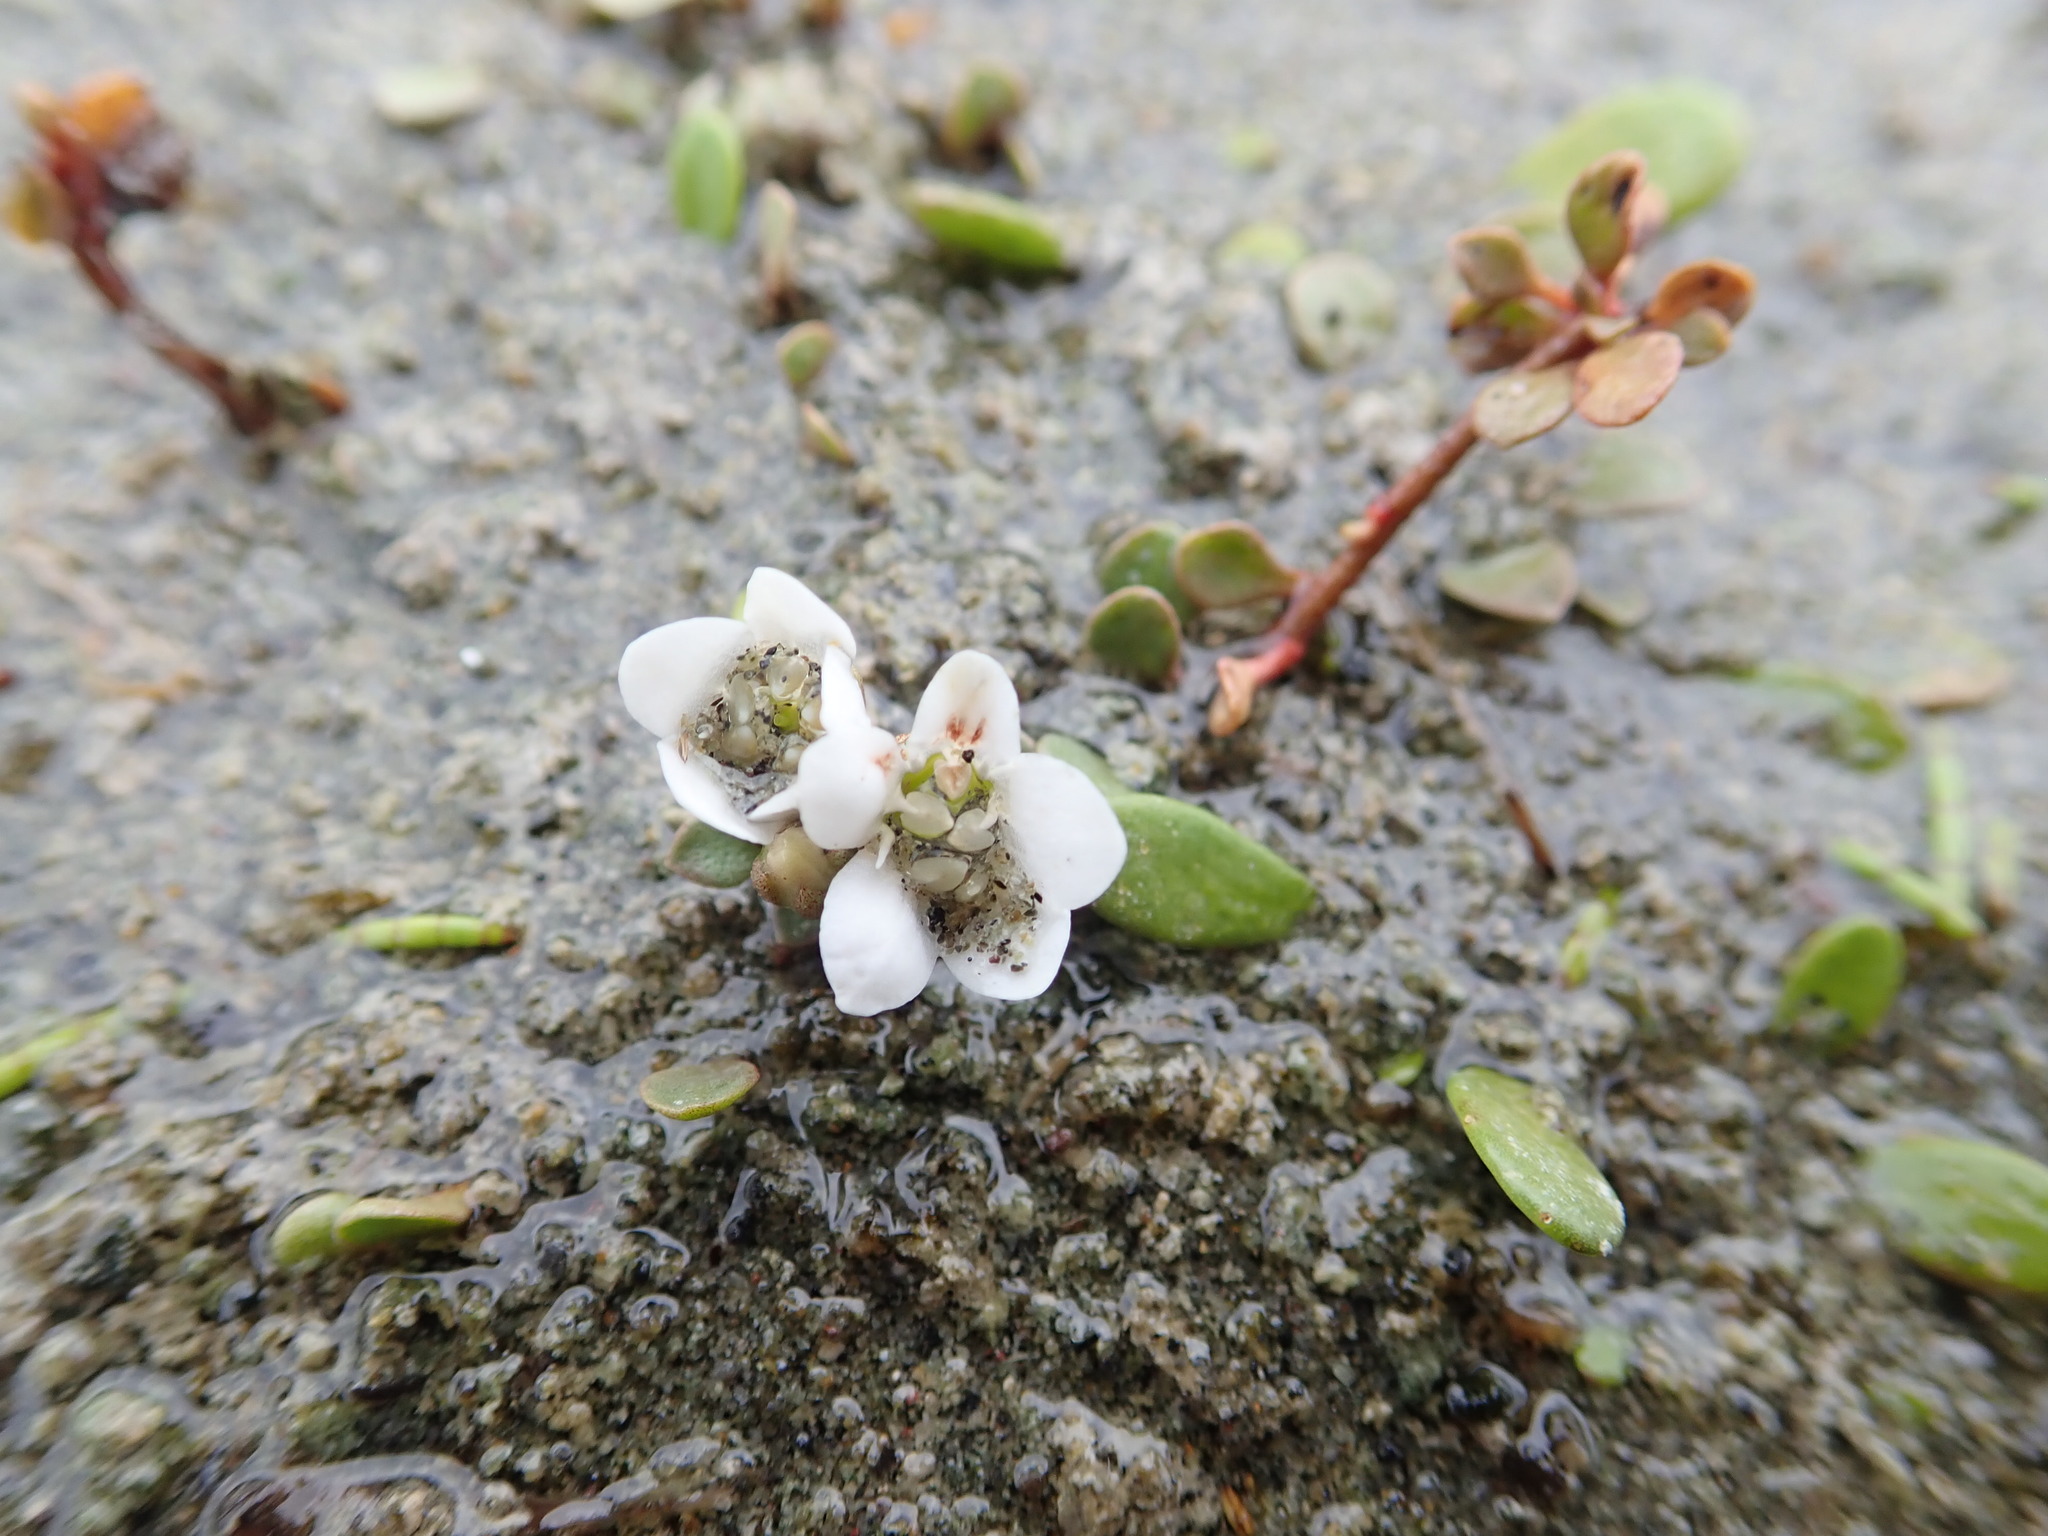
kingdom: Plantae
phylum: Tracheophyta
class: Magnoliopsida
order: Ericales
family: Primulaceae
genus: Samolus
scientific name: Samolus repens
